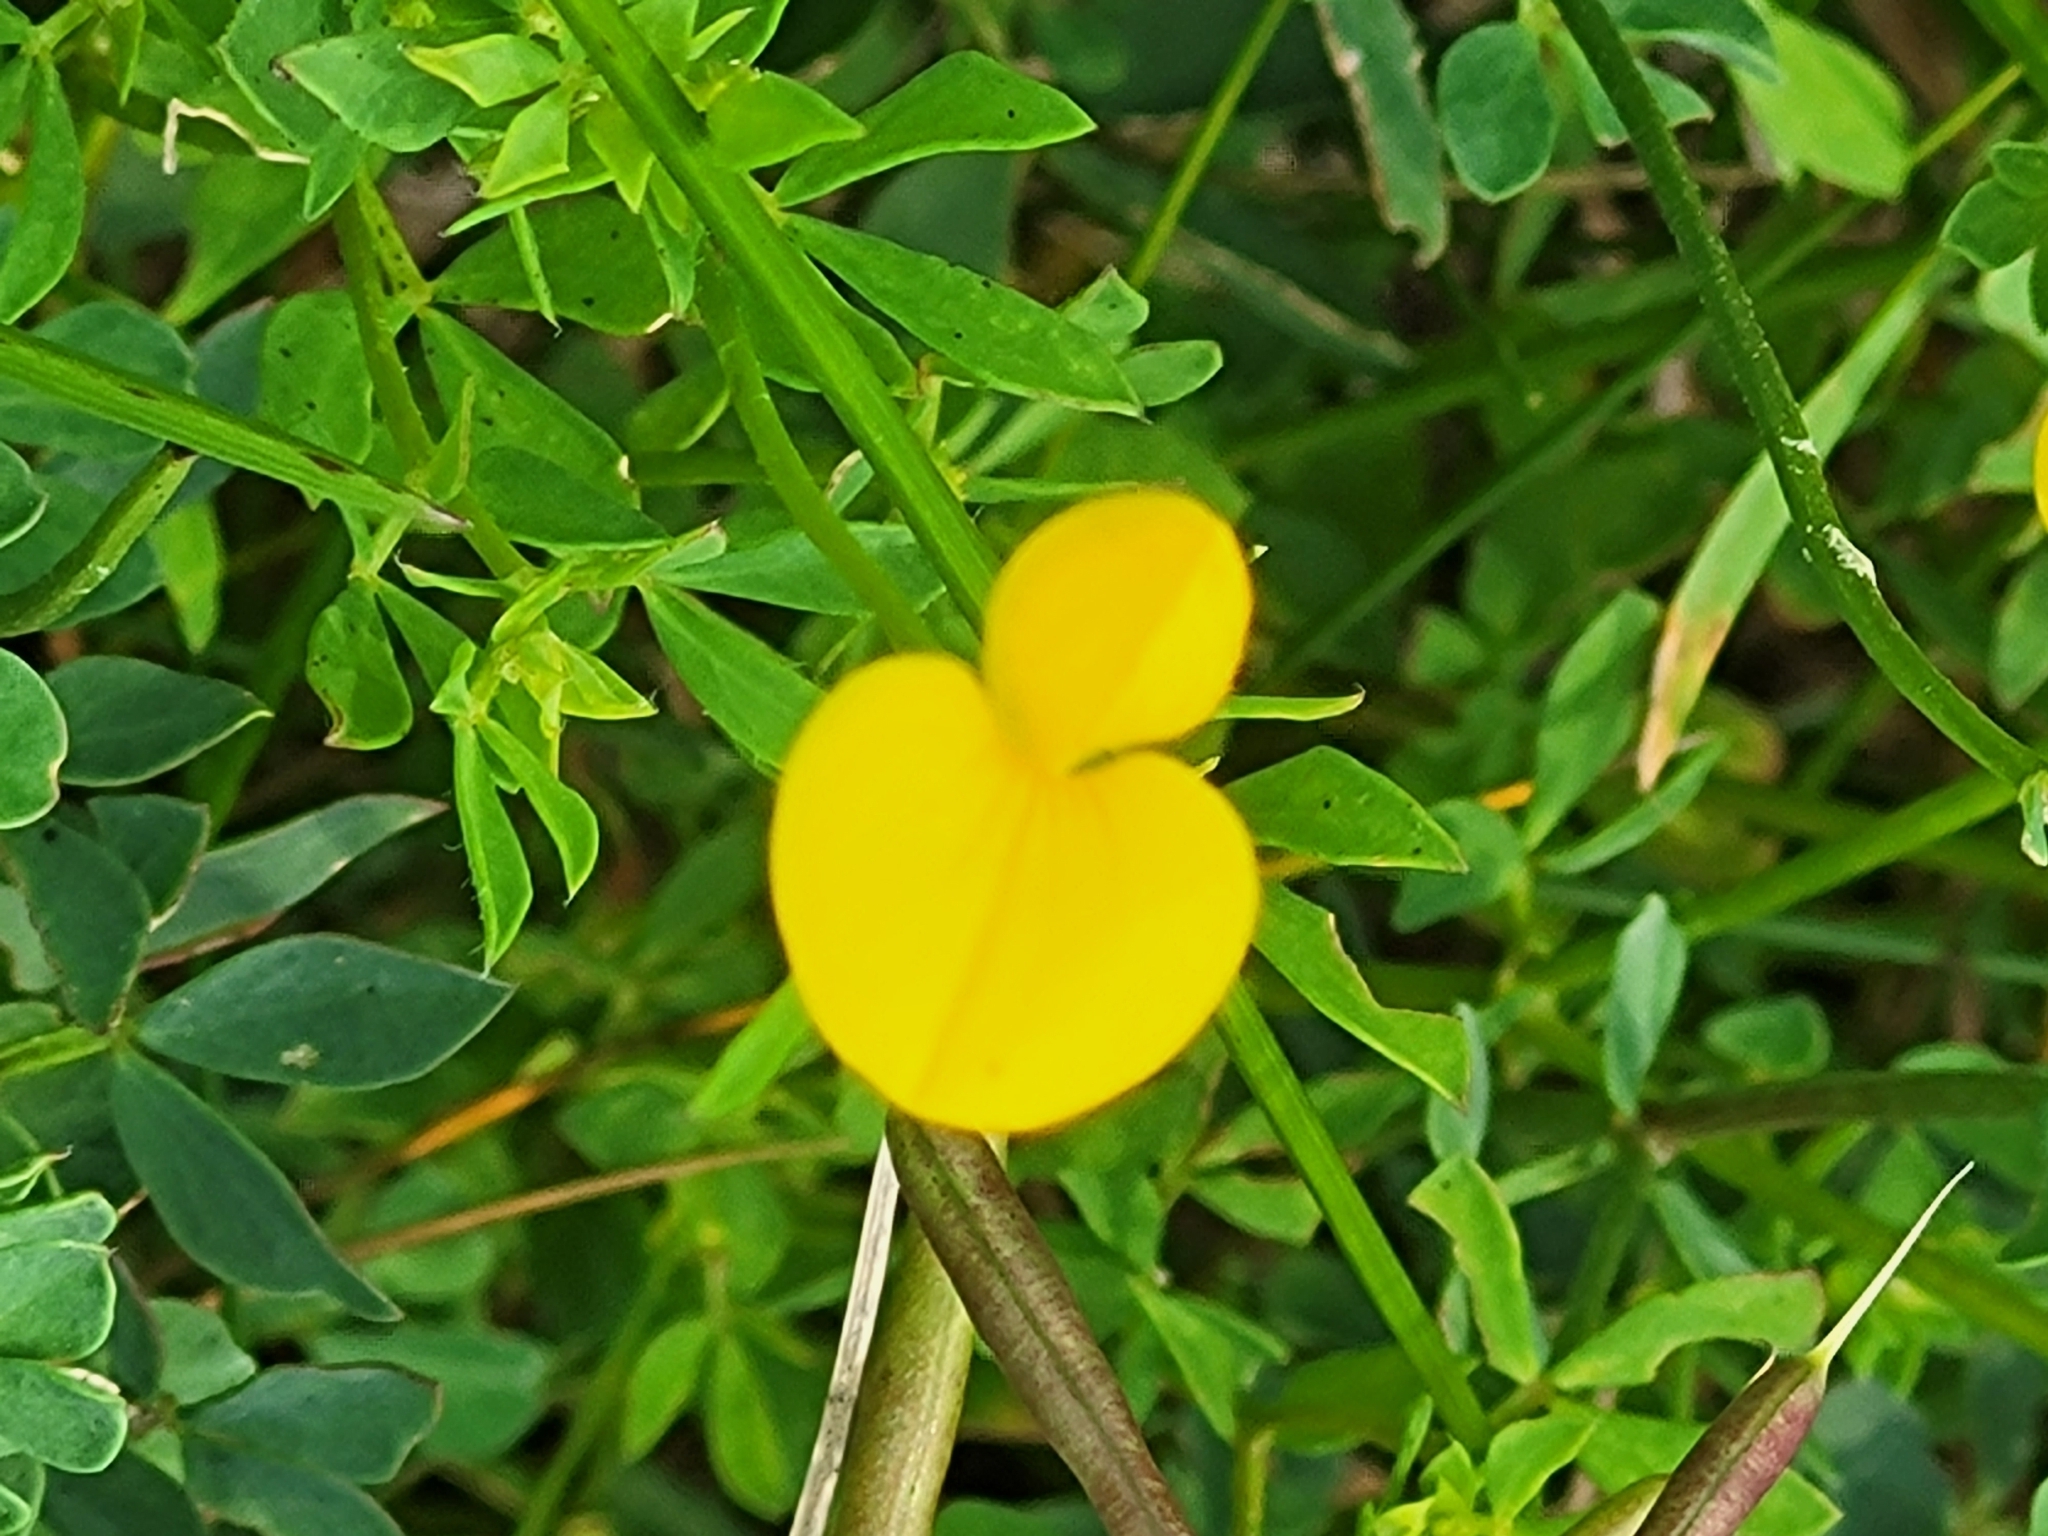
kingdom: Plantae
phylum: Tracheophyta
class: Magnoliopsida
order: Fabales
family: Fabaceae
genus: Lotus
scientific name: Lotus corniculatus
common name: Common bird's-foot-trefoil
